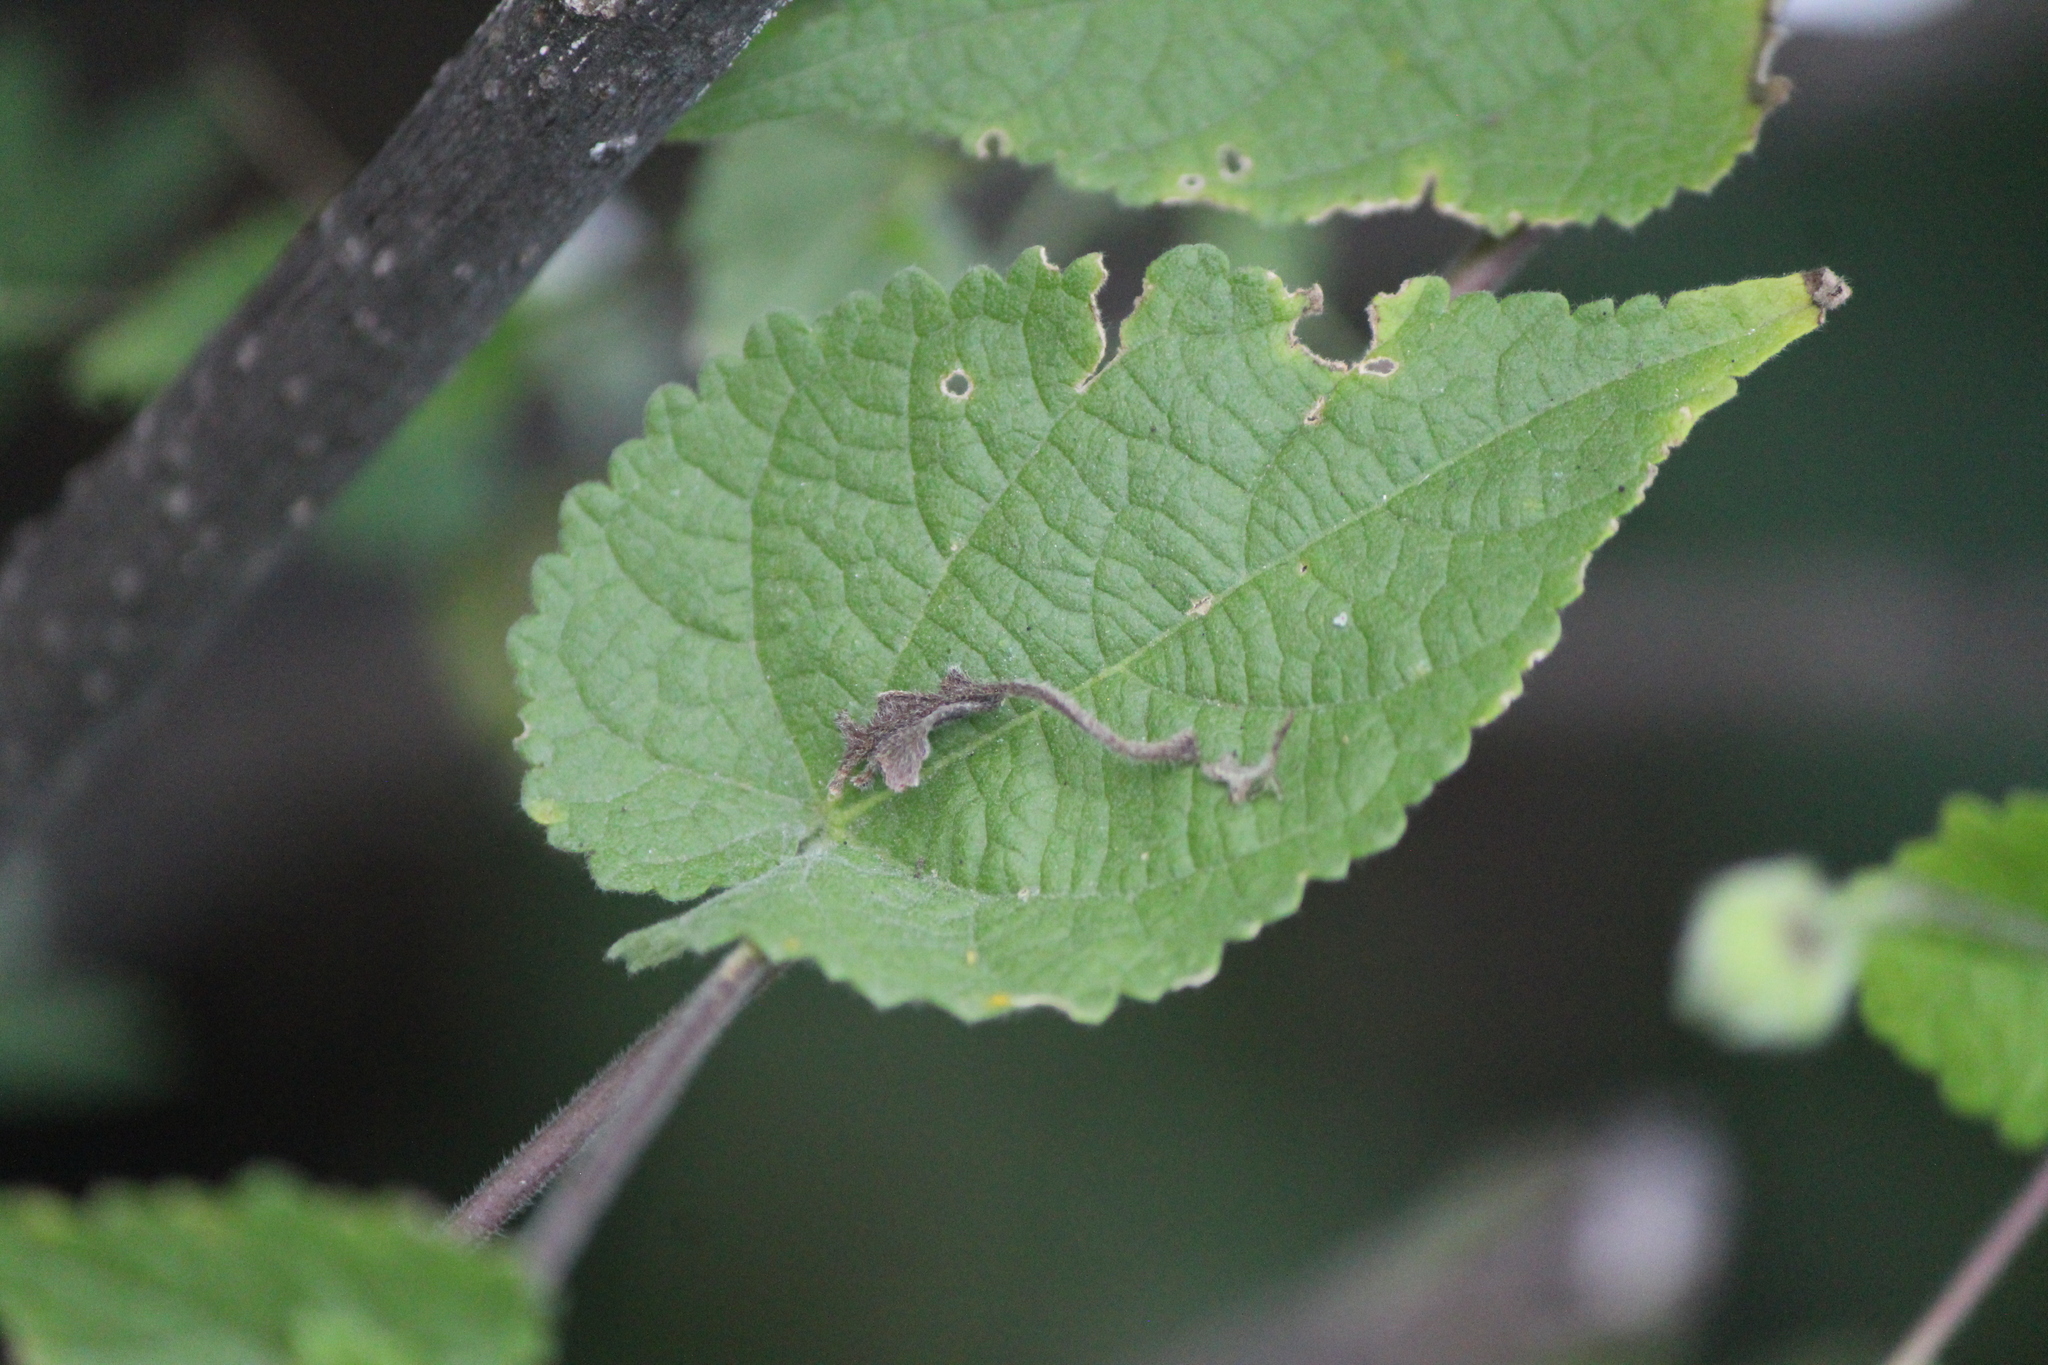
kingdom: Plantae
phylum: Tracheophyta
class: Magnoliopsida
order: Malvales
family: Malvaceae
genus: Herissantia
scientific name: Herissantia crispa
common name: Bladdermallow
